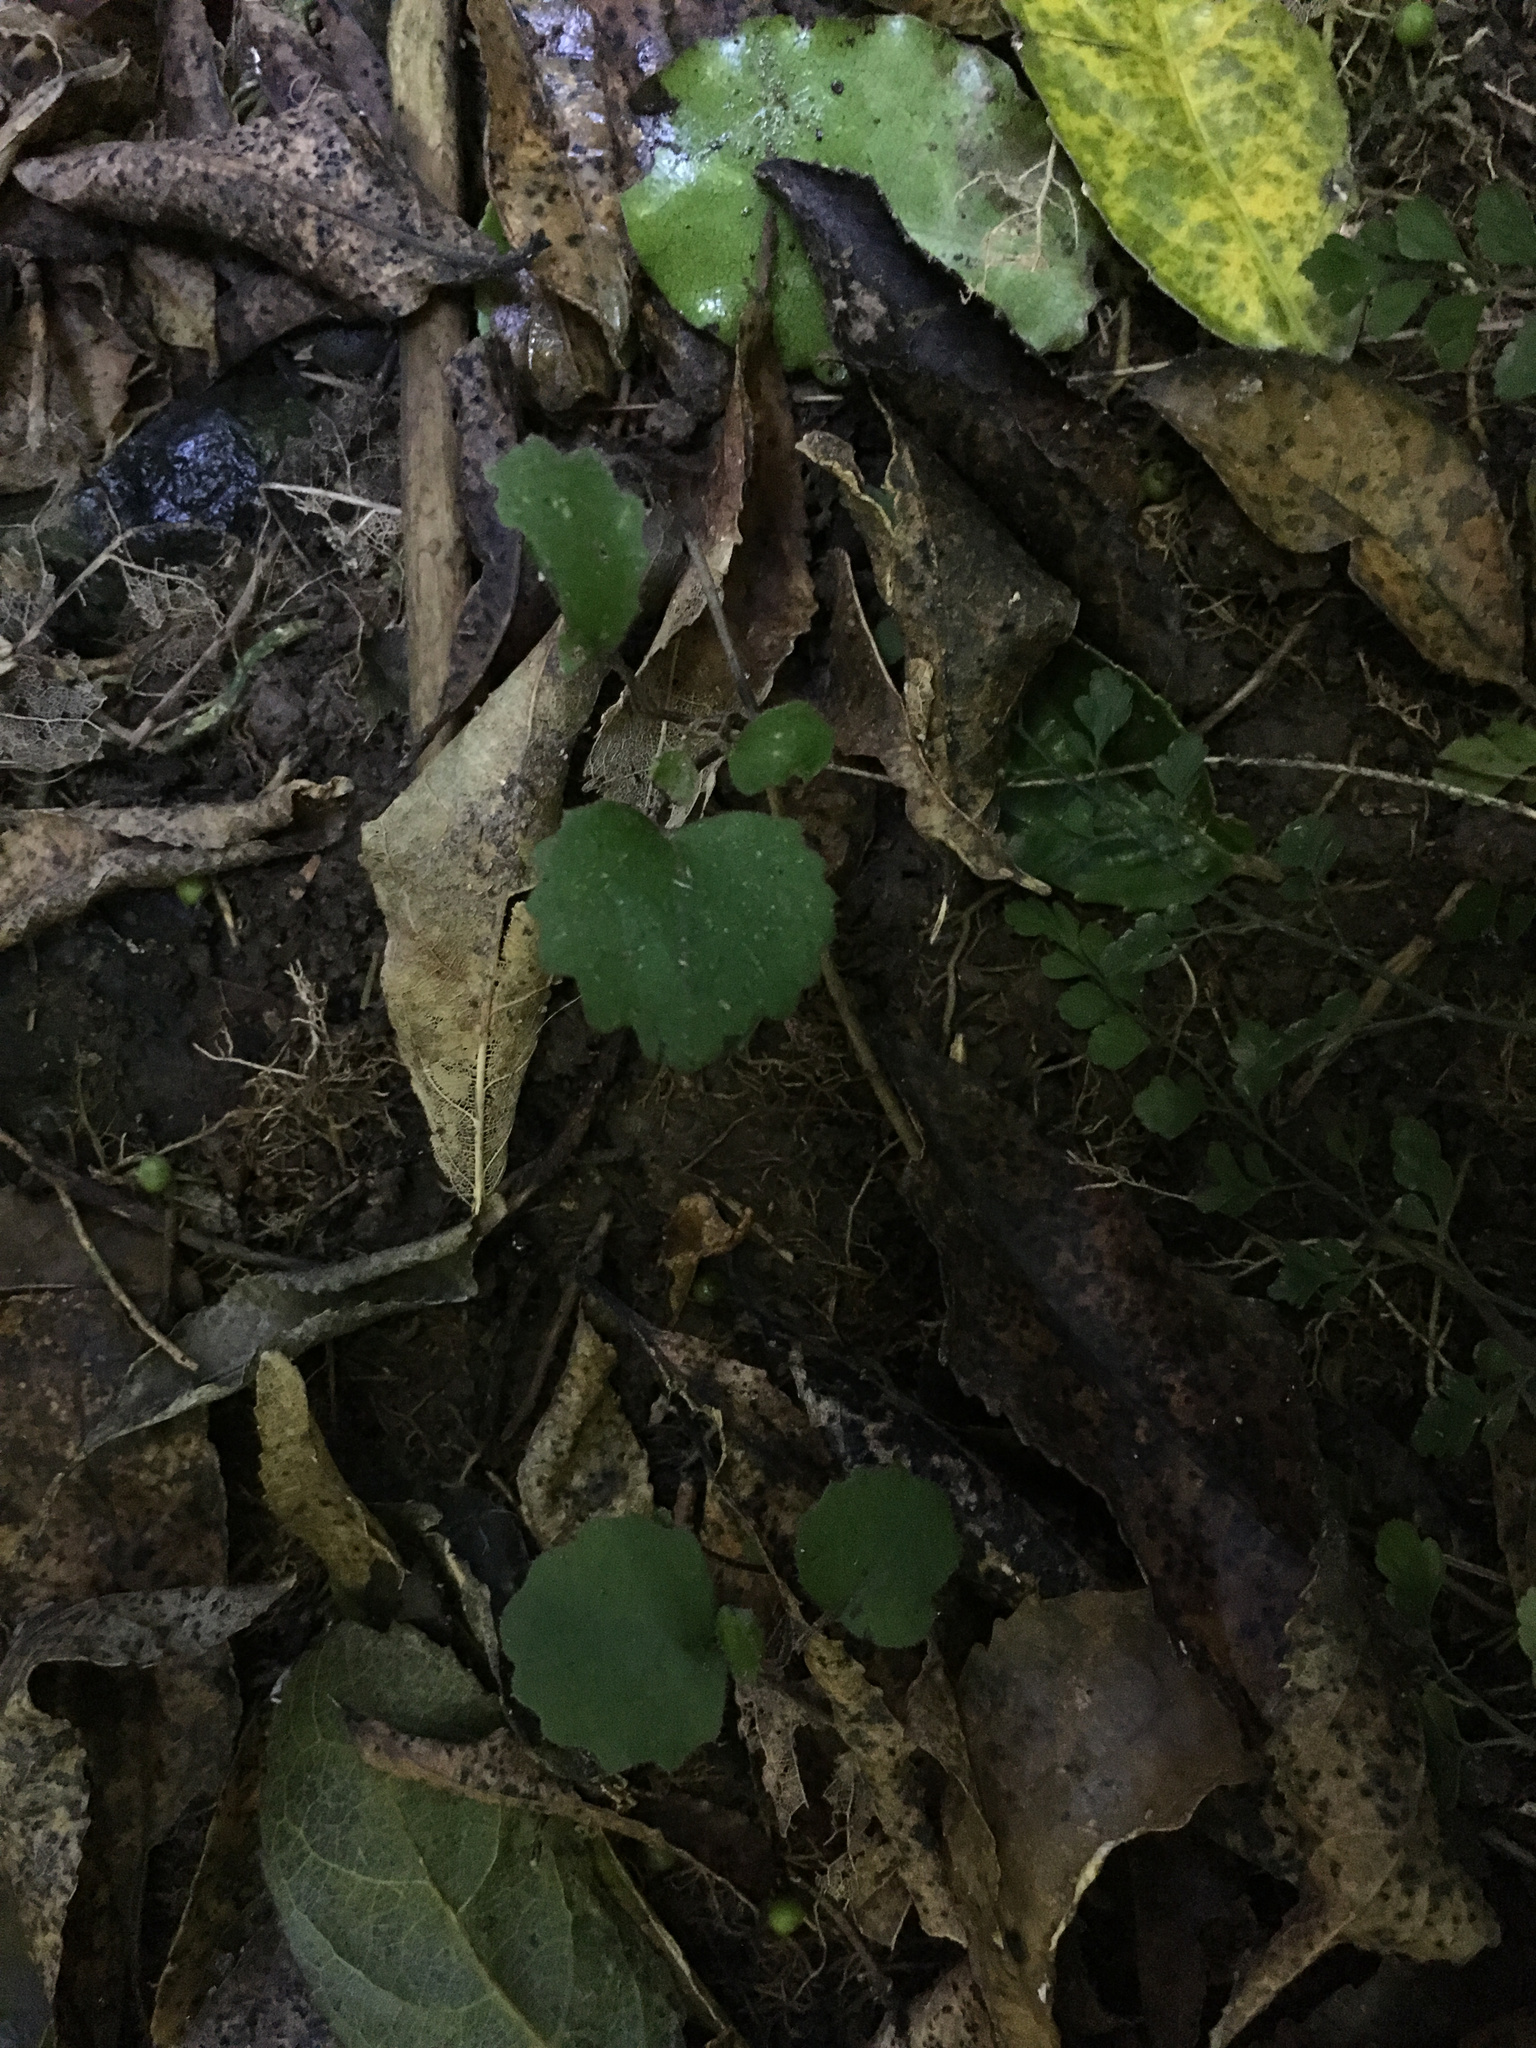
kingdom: Plantae
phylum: Tracheophyta
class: Magnoliopsida
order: Asterales
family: Asteraceae
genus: Brachyglottis
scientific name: Brachyglottis sciadophila
